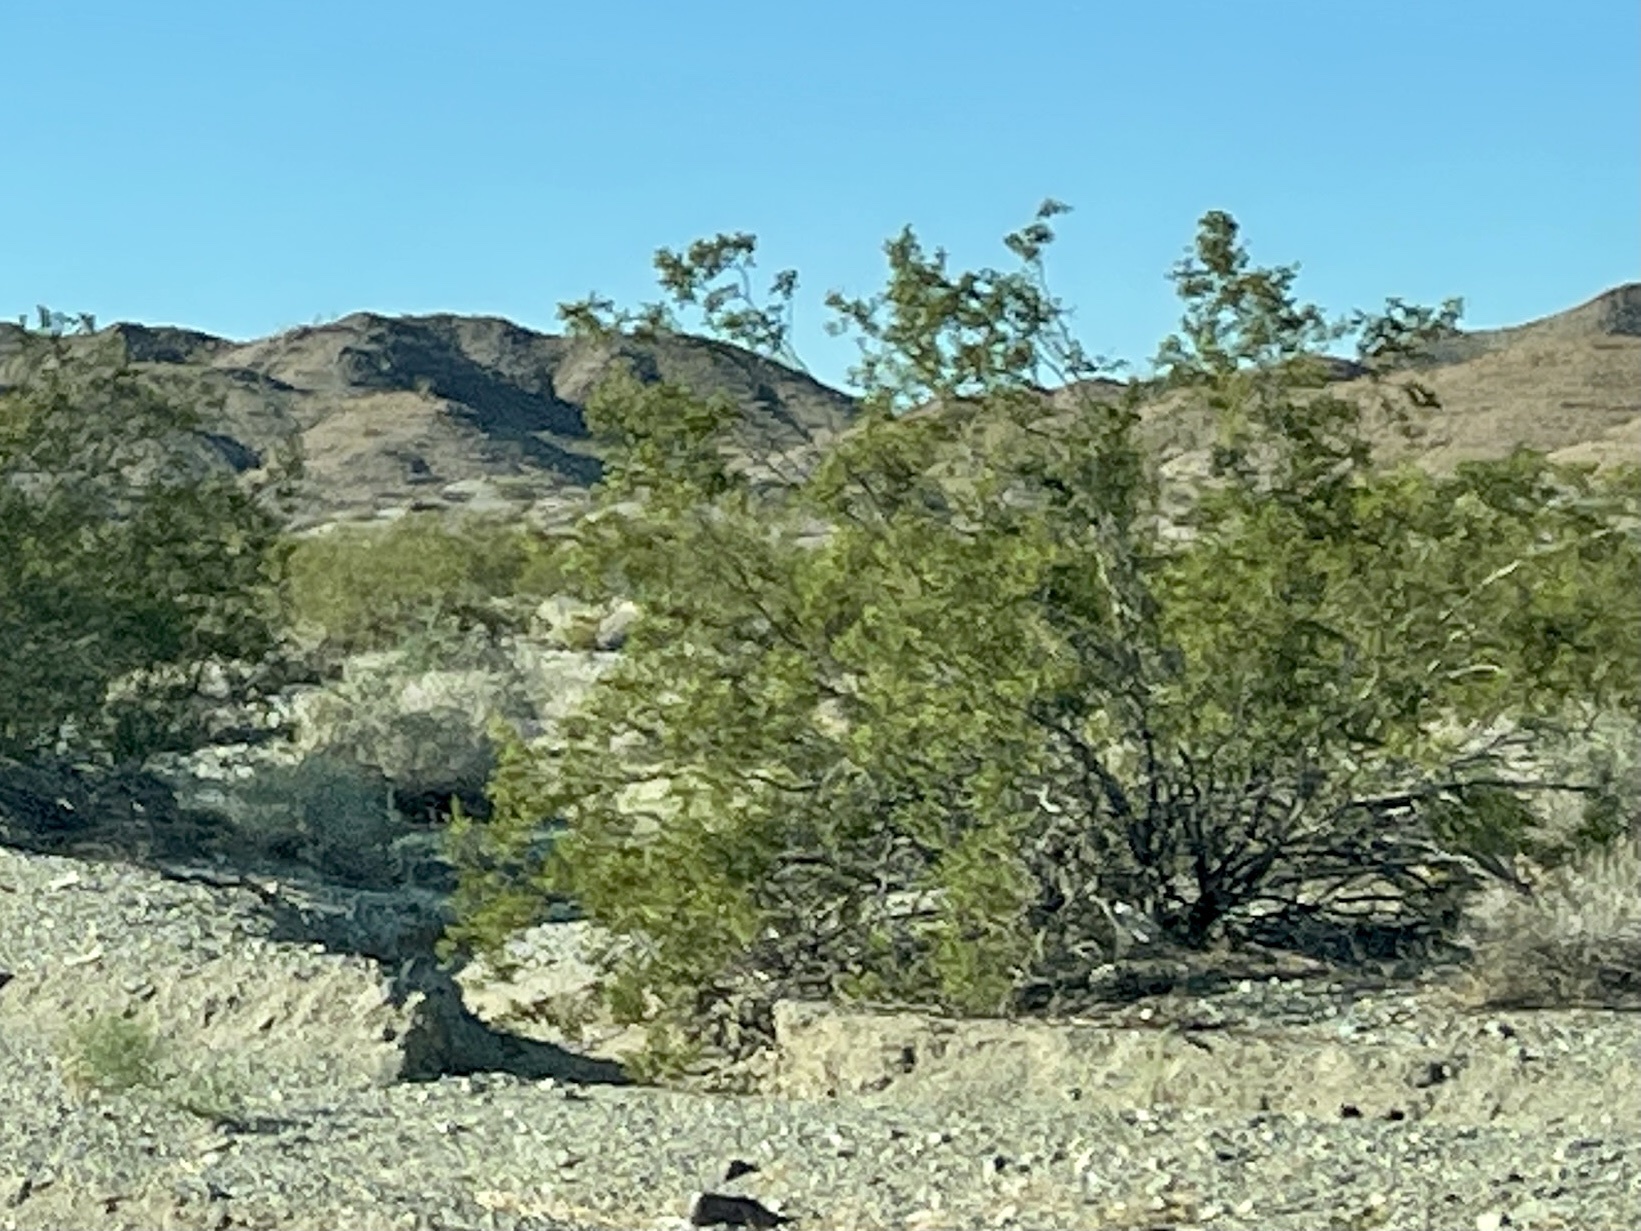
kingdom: Plantae
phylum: Tracheophyta
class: Magnoliopsida
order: Zygophyllales
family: Zygophyllaceae
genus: Larrea
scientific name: Larrea tridentata
